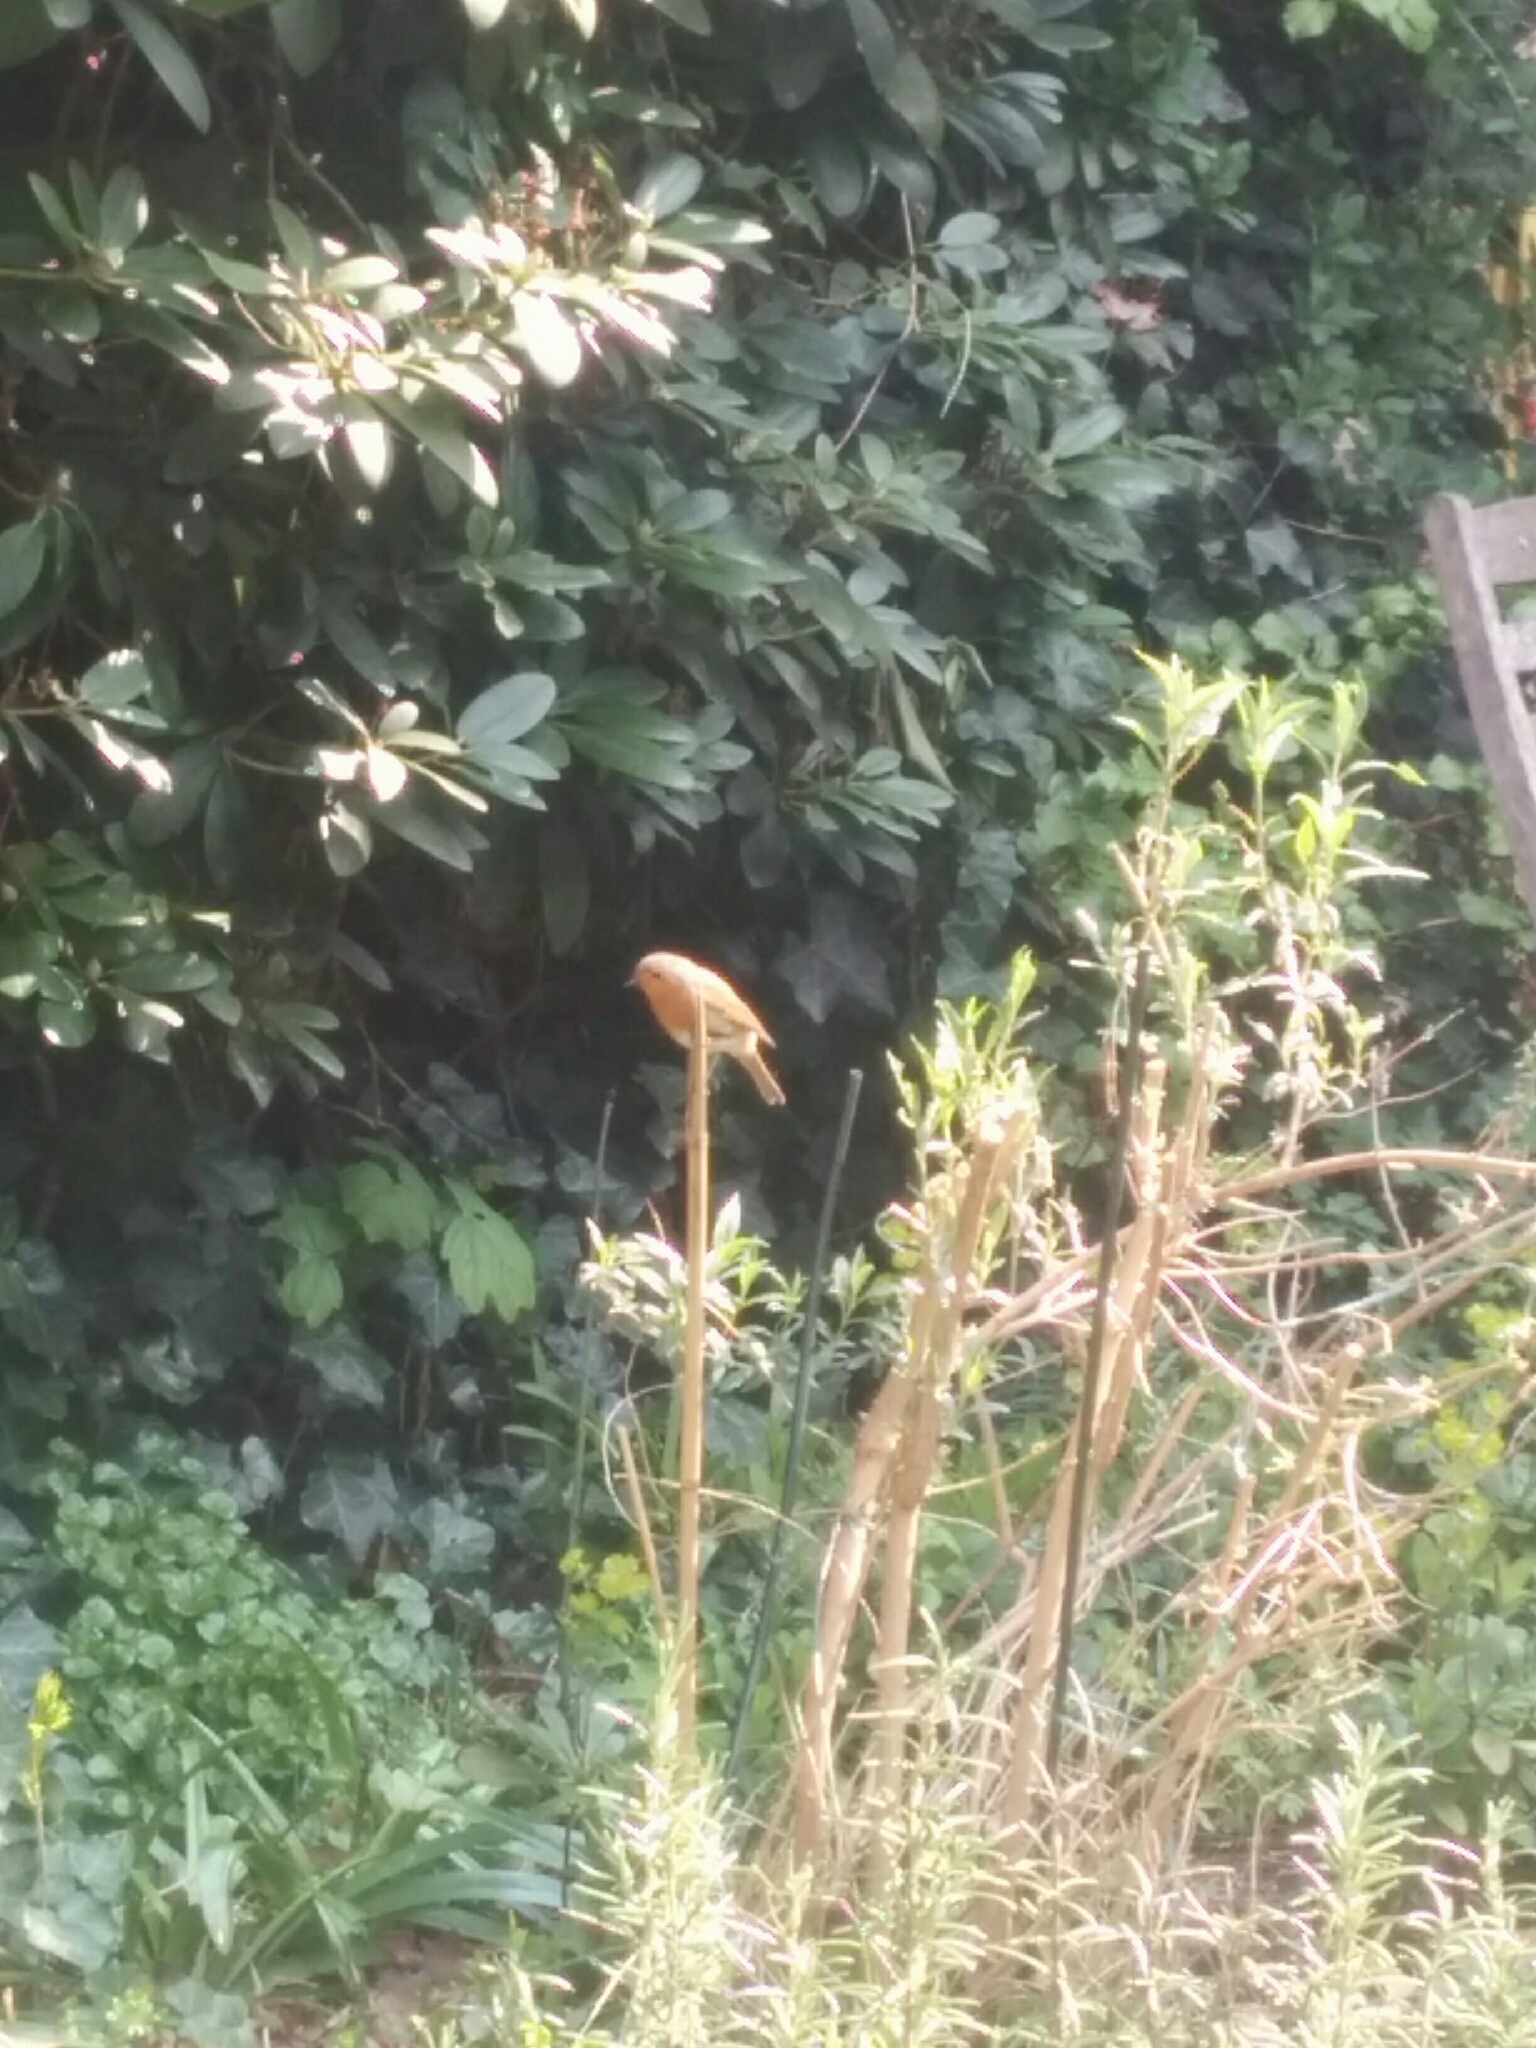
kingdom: Animalia
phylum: Chordata
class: Aves
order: Passeriformes
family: Muscicapidae
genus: Erithacus
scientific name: Erithacus rubecula
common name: European robin
